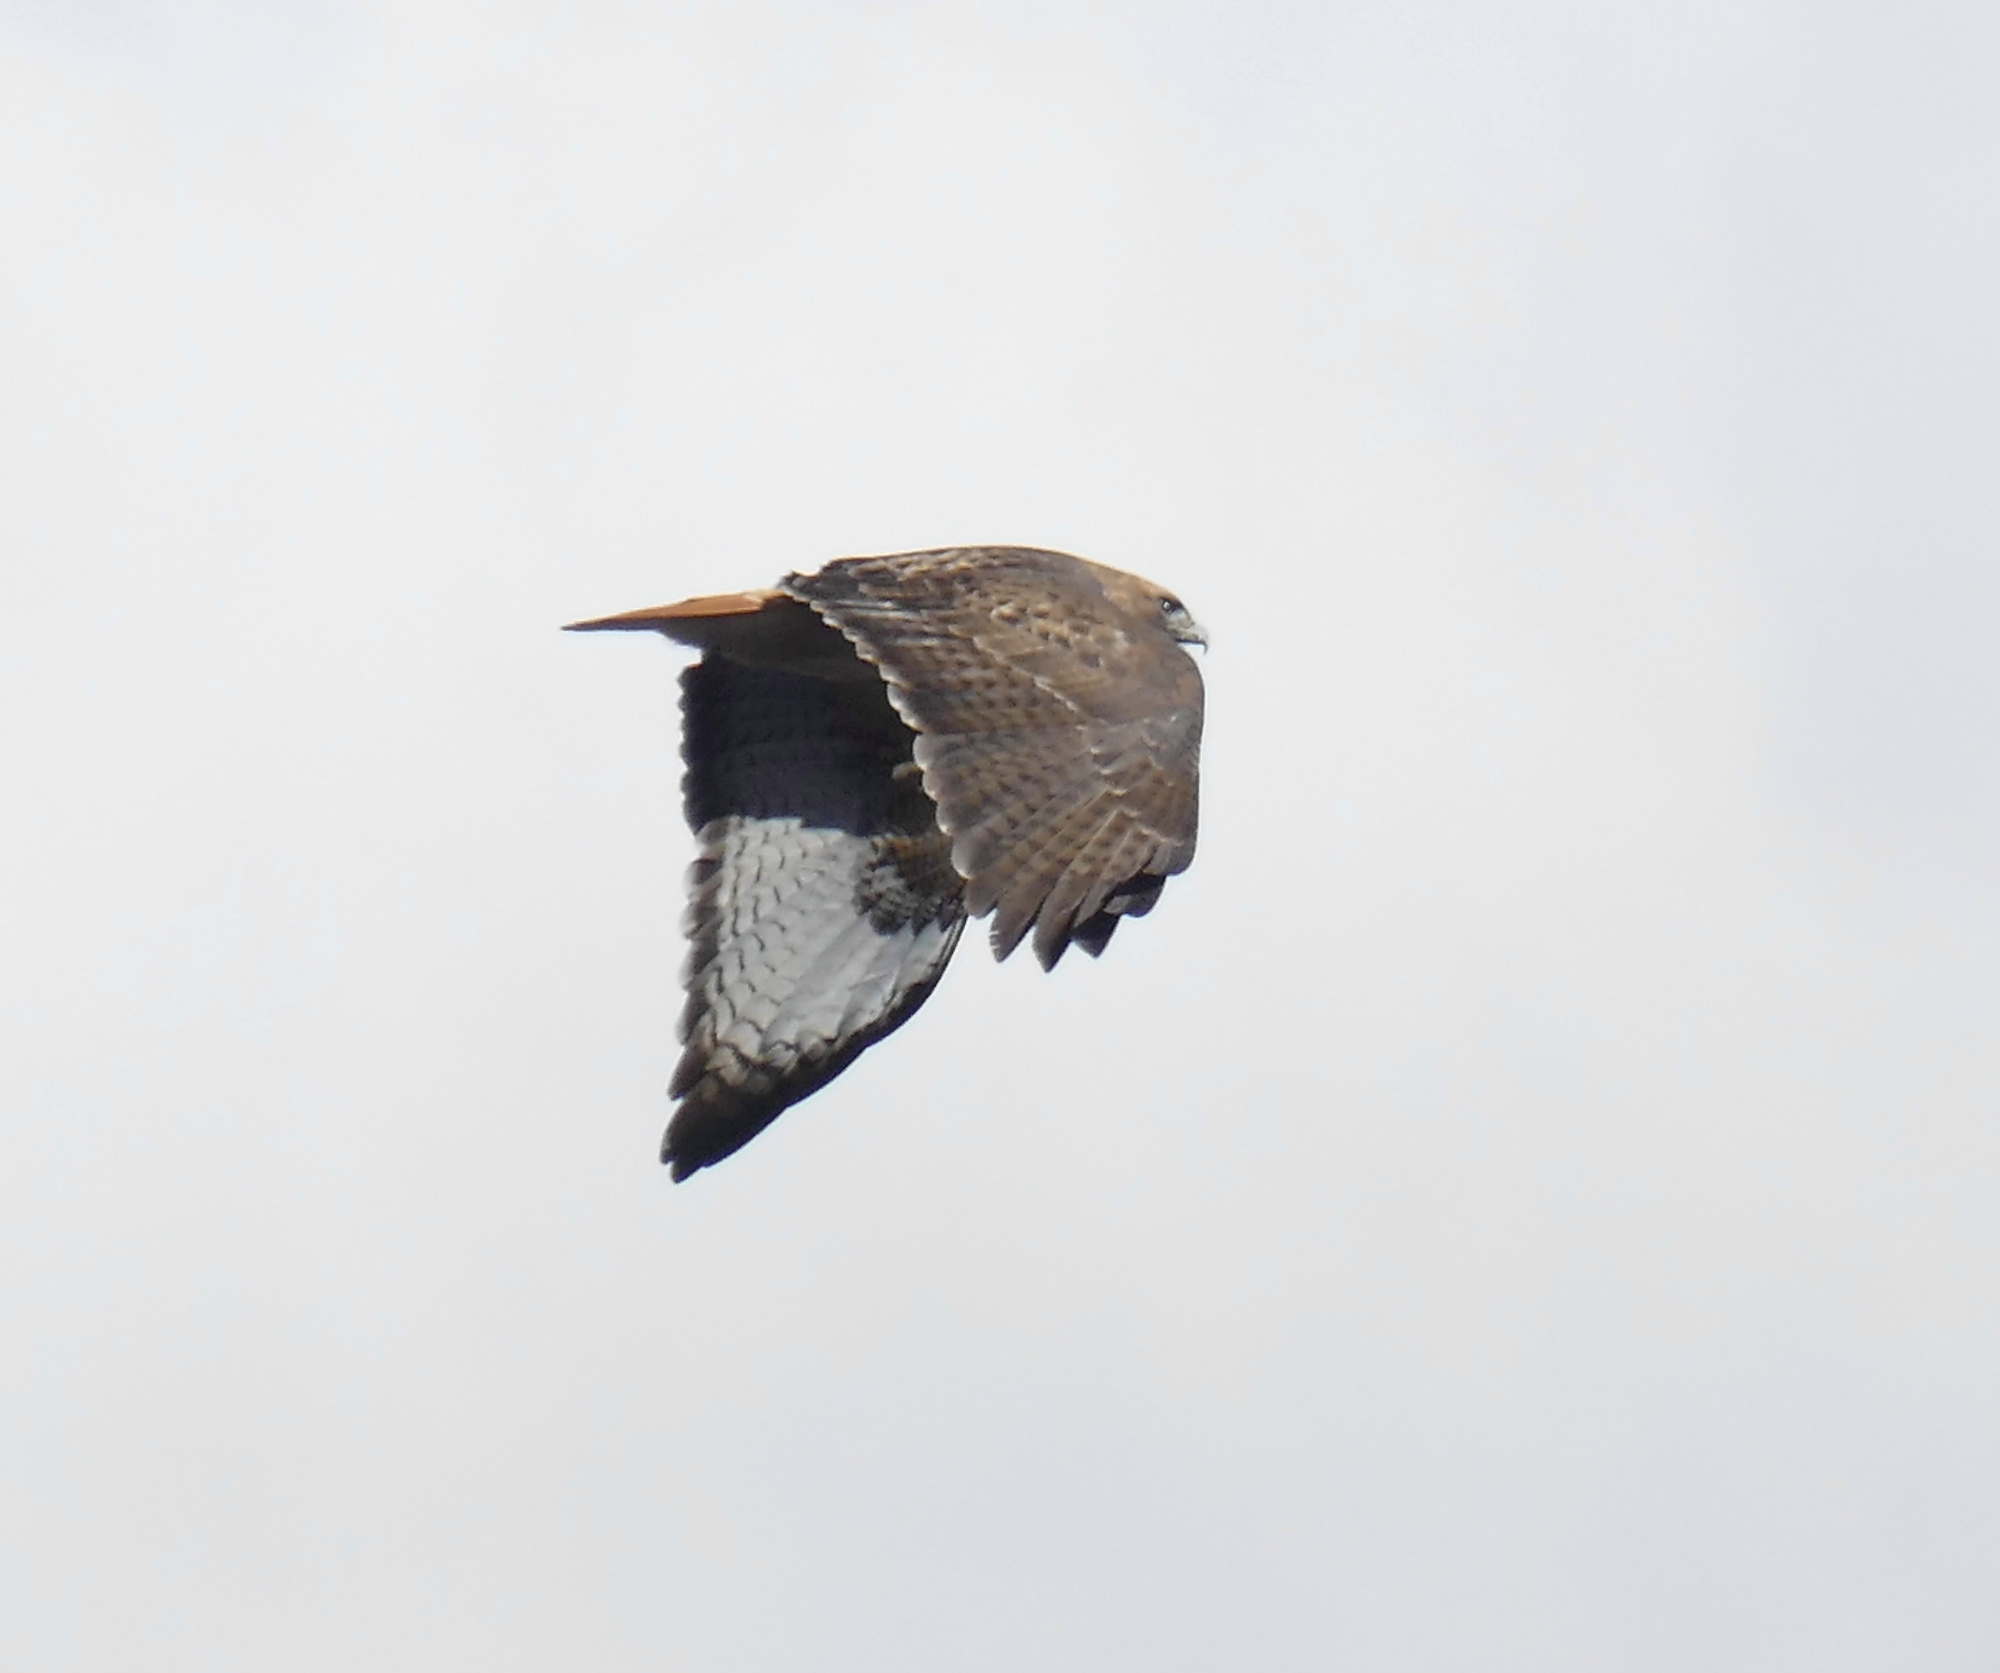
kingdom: Animalia
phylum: Chordata
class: Aves
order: Accipitriformes
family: Accipitridae
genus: Buteo
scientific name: Buteo jamaicensis
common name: Red-tailed hawk
